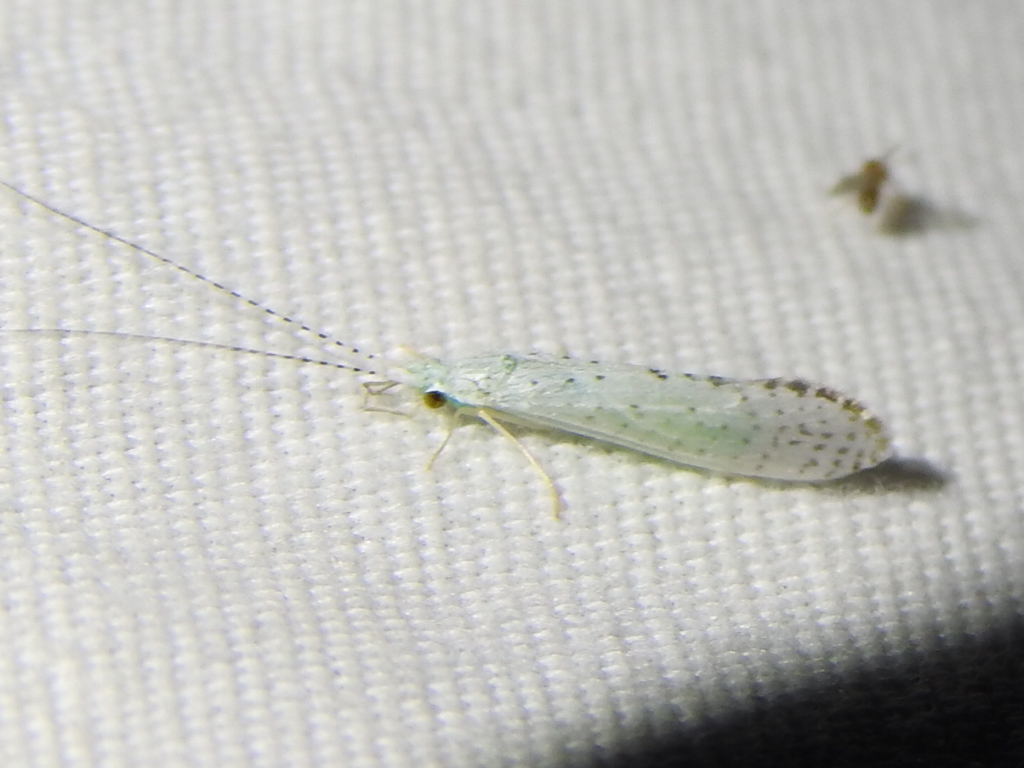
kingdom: Animalia
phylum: Arthropoda
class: Insecta
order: Trichoptera
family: Leptoceridae
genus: Nectopsyche
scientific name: Nectopsyche candida
